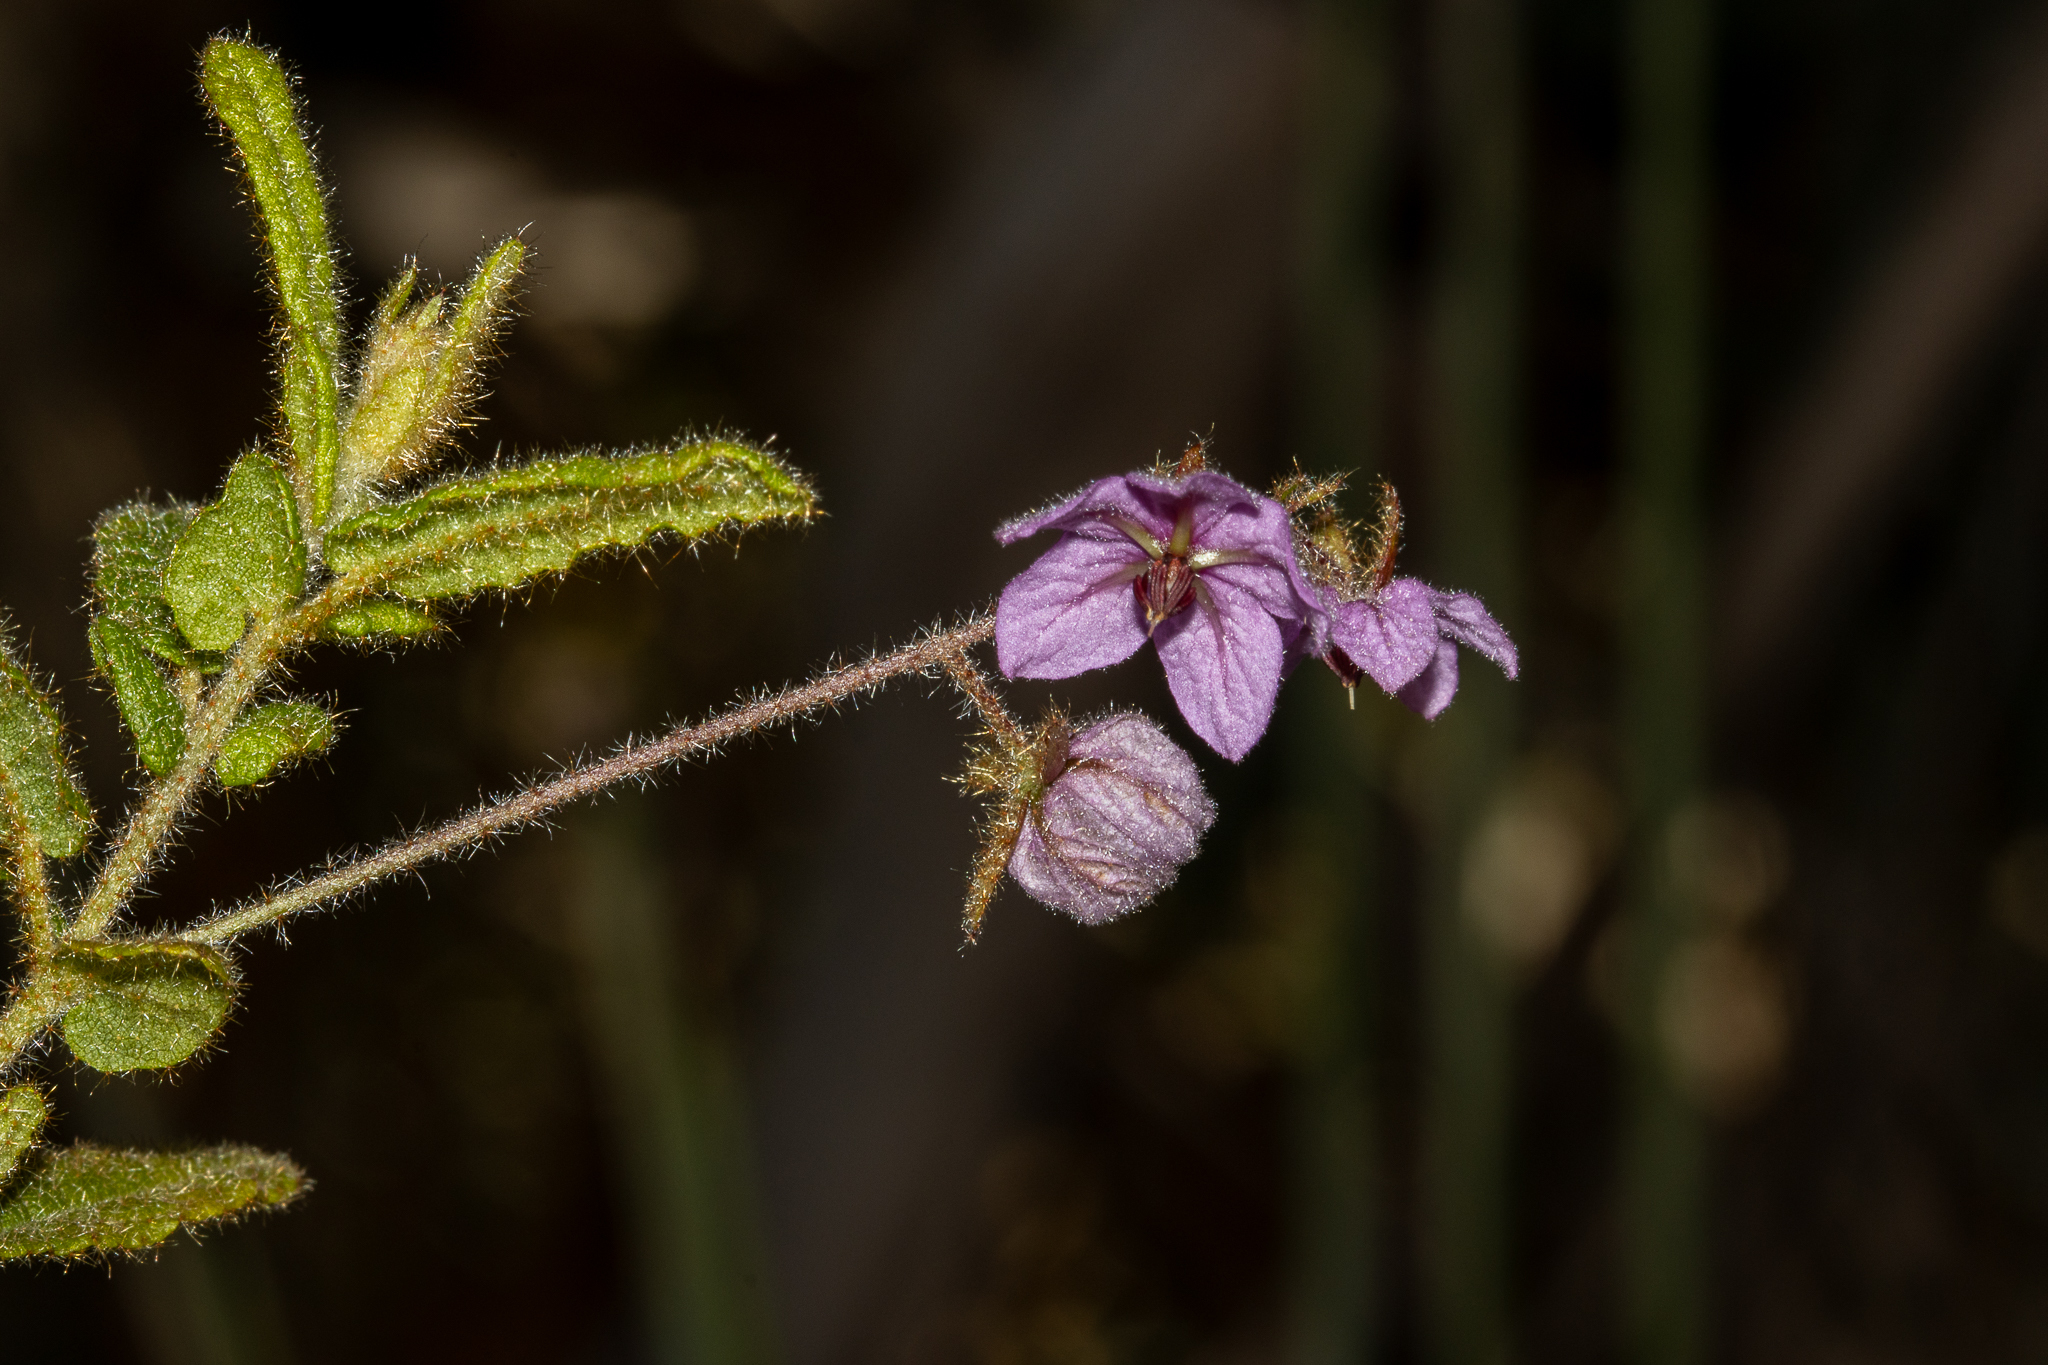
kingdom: Plantae
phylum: Tracheophyta
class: Magnoliopsida
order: Malvales
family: Malvaceae
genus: Thomasia
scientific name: Thomasia petalocalyx
